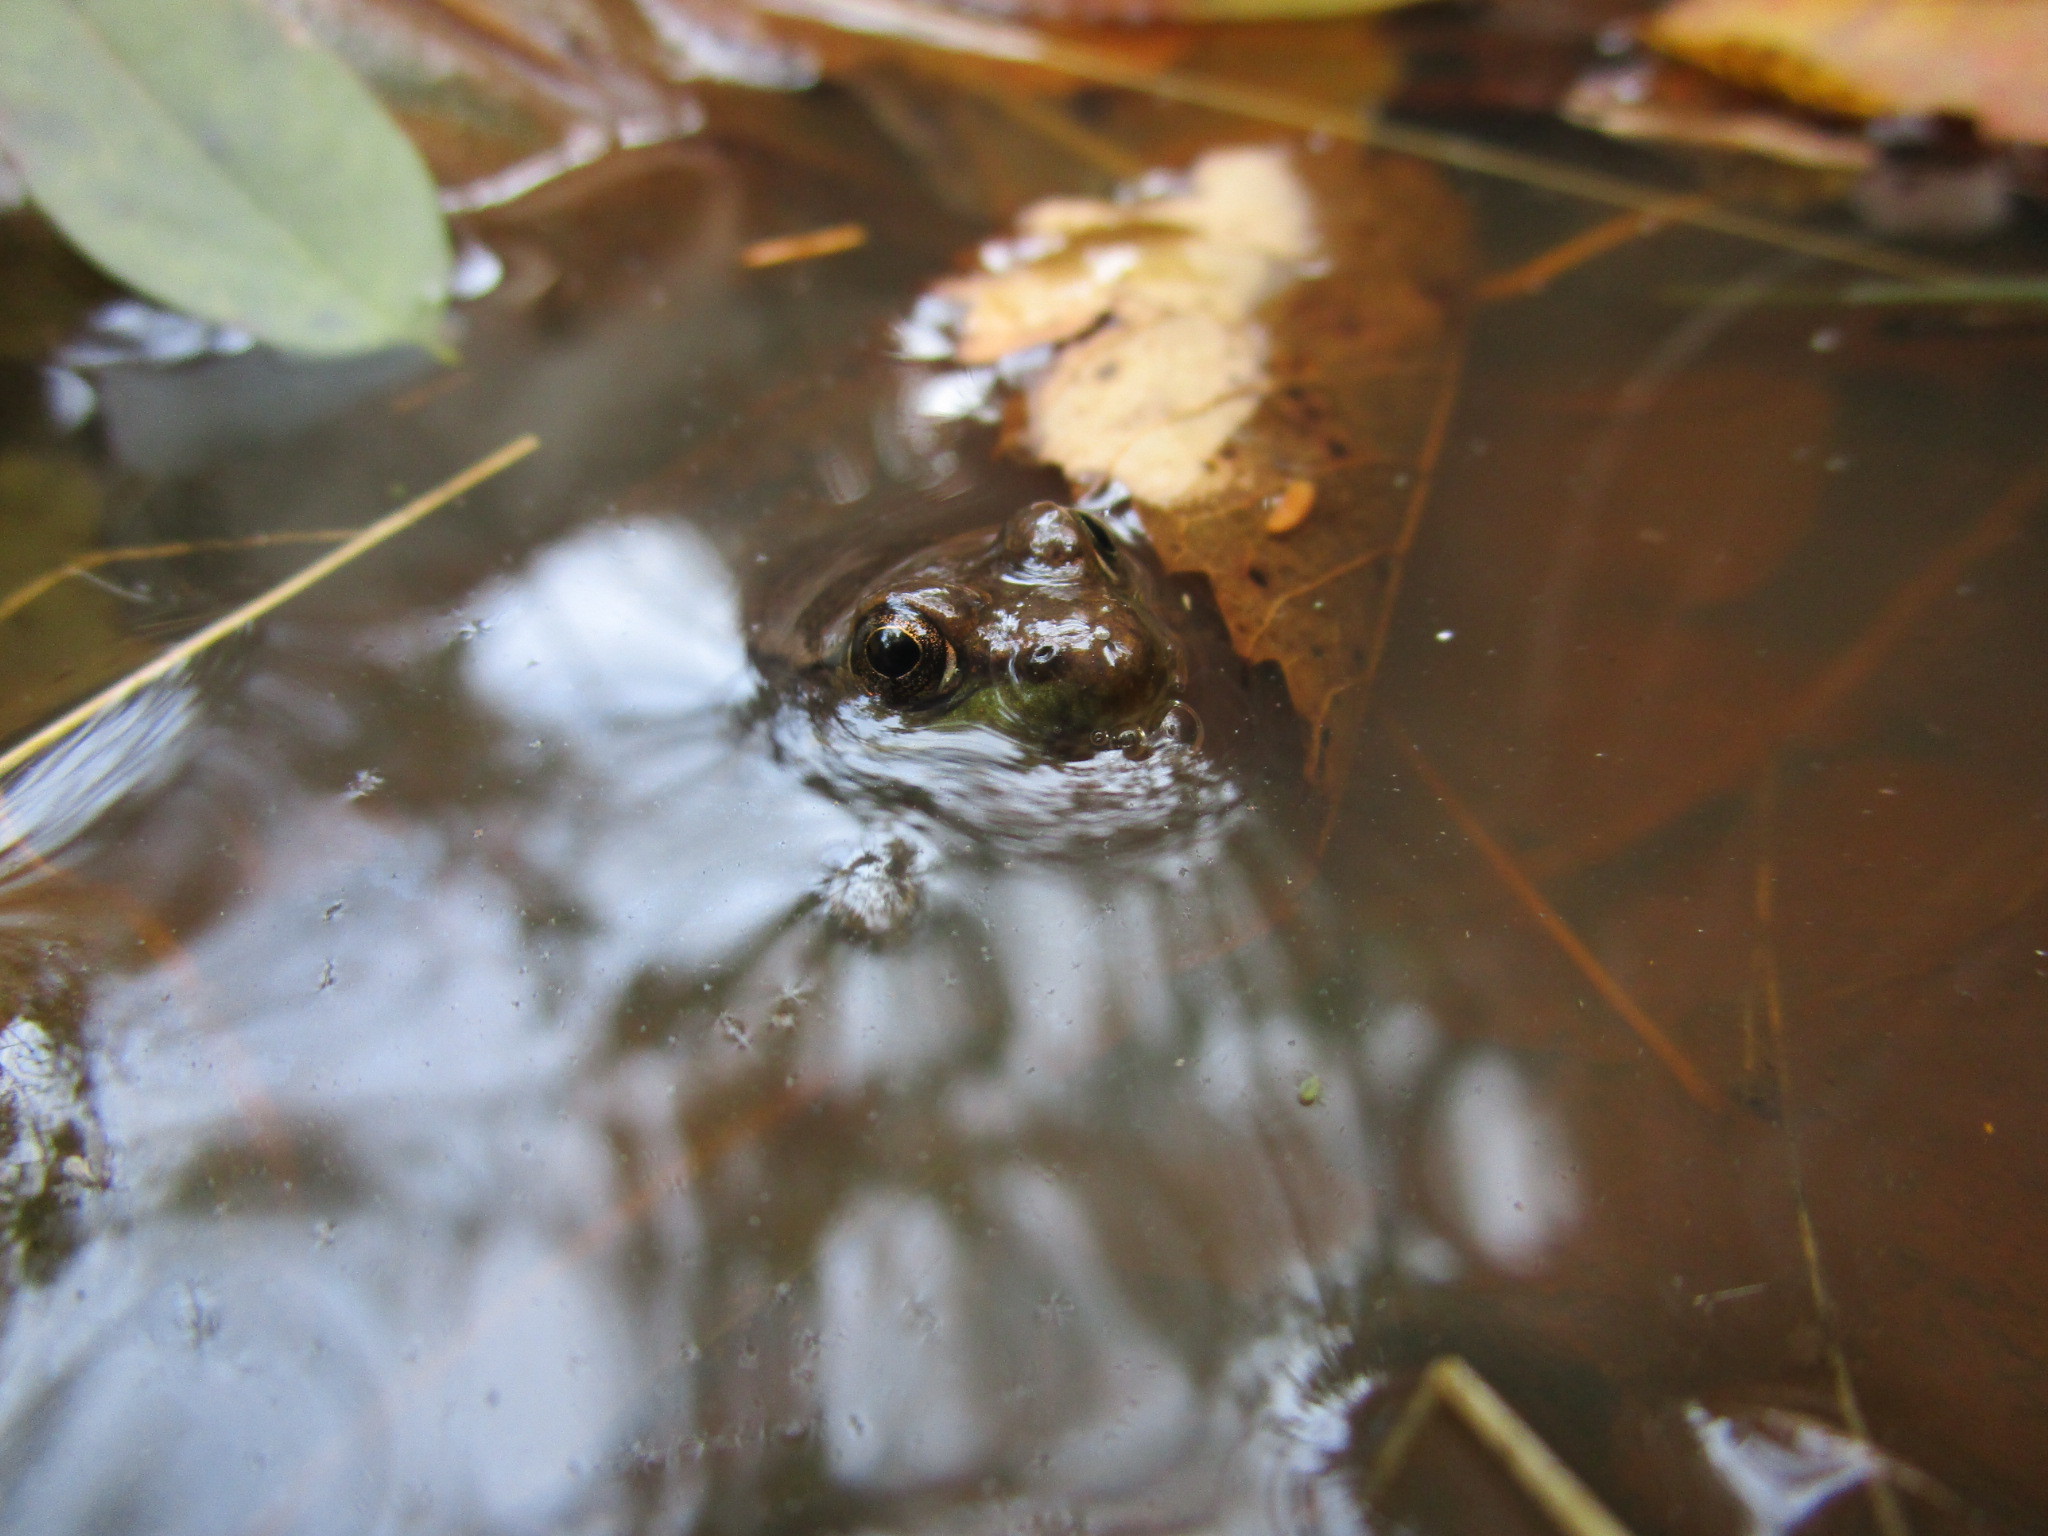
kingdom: Animalia
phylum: Chordata
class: Amphibia
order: Anura
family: Ranidae
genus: Lithobates
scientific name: Lithobates clamitans
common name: Green frog
